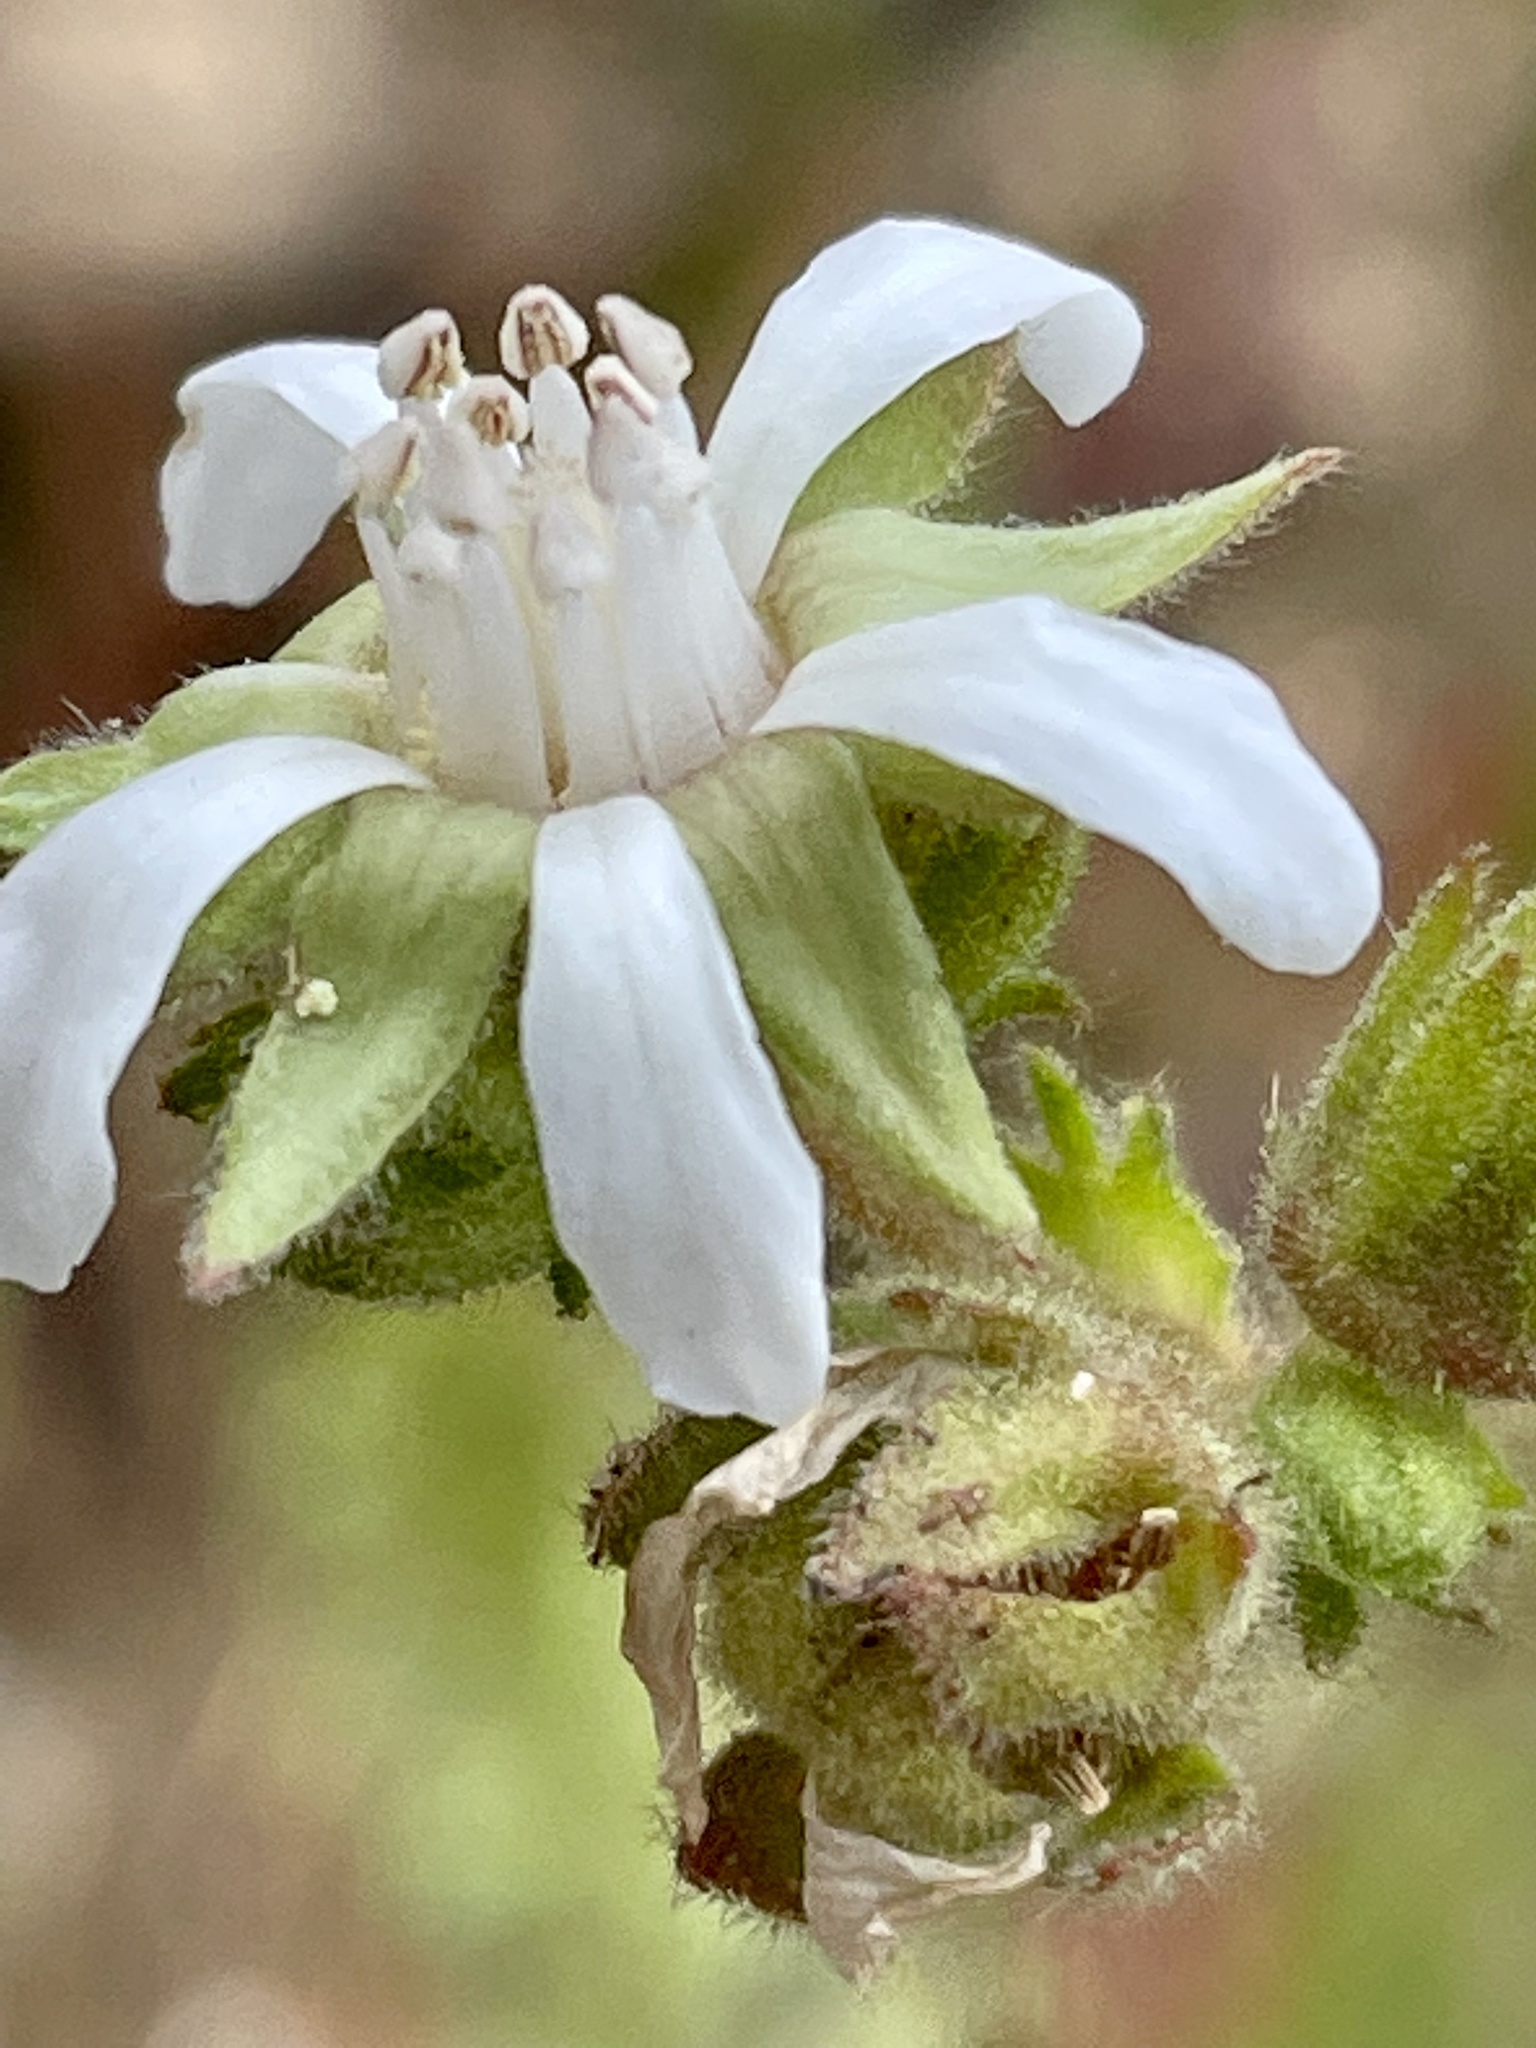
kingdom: Plantae
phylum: Tracheophyta
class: Magnoliopsida
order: Rosales
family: Rosaceae
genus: Potentilla
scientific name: Potentilla
